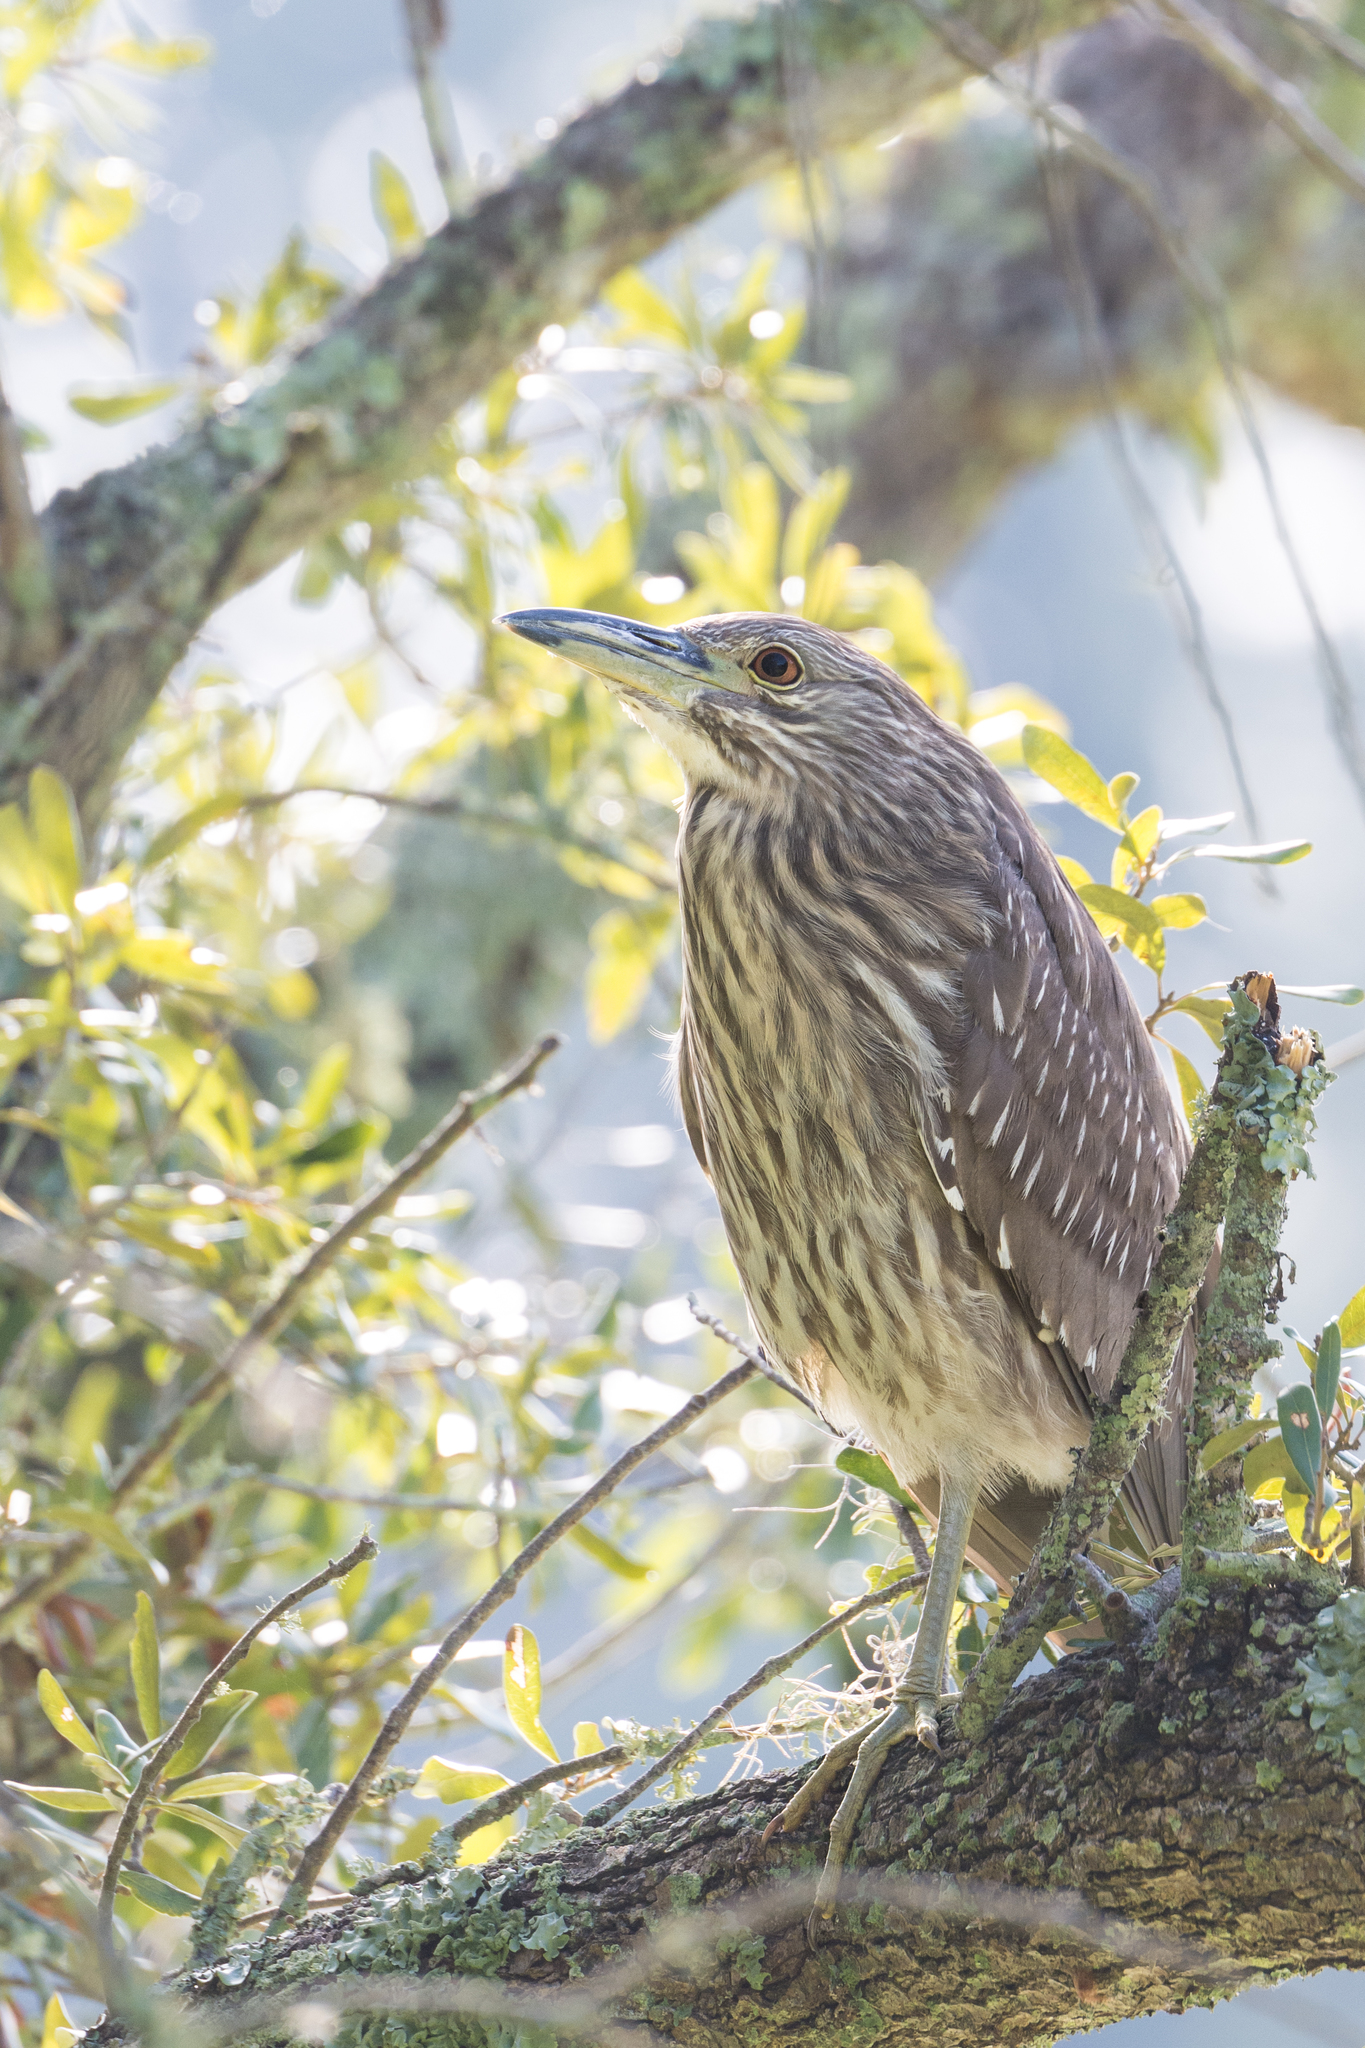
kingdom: Animalia
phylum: Chordata
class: Aves
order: Pelecaniformes
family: Ardeidae
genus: Nycticorax
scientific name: Nycticorax nycticorax
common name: Black-crowned night heron
